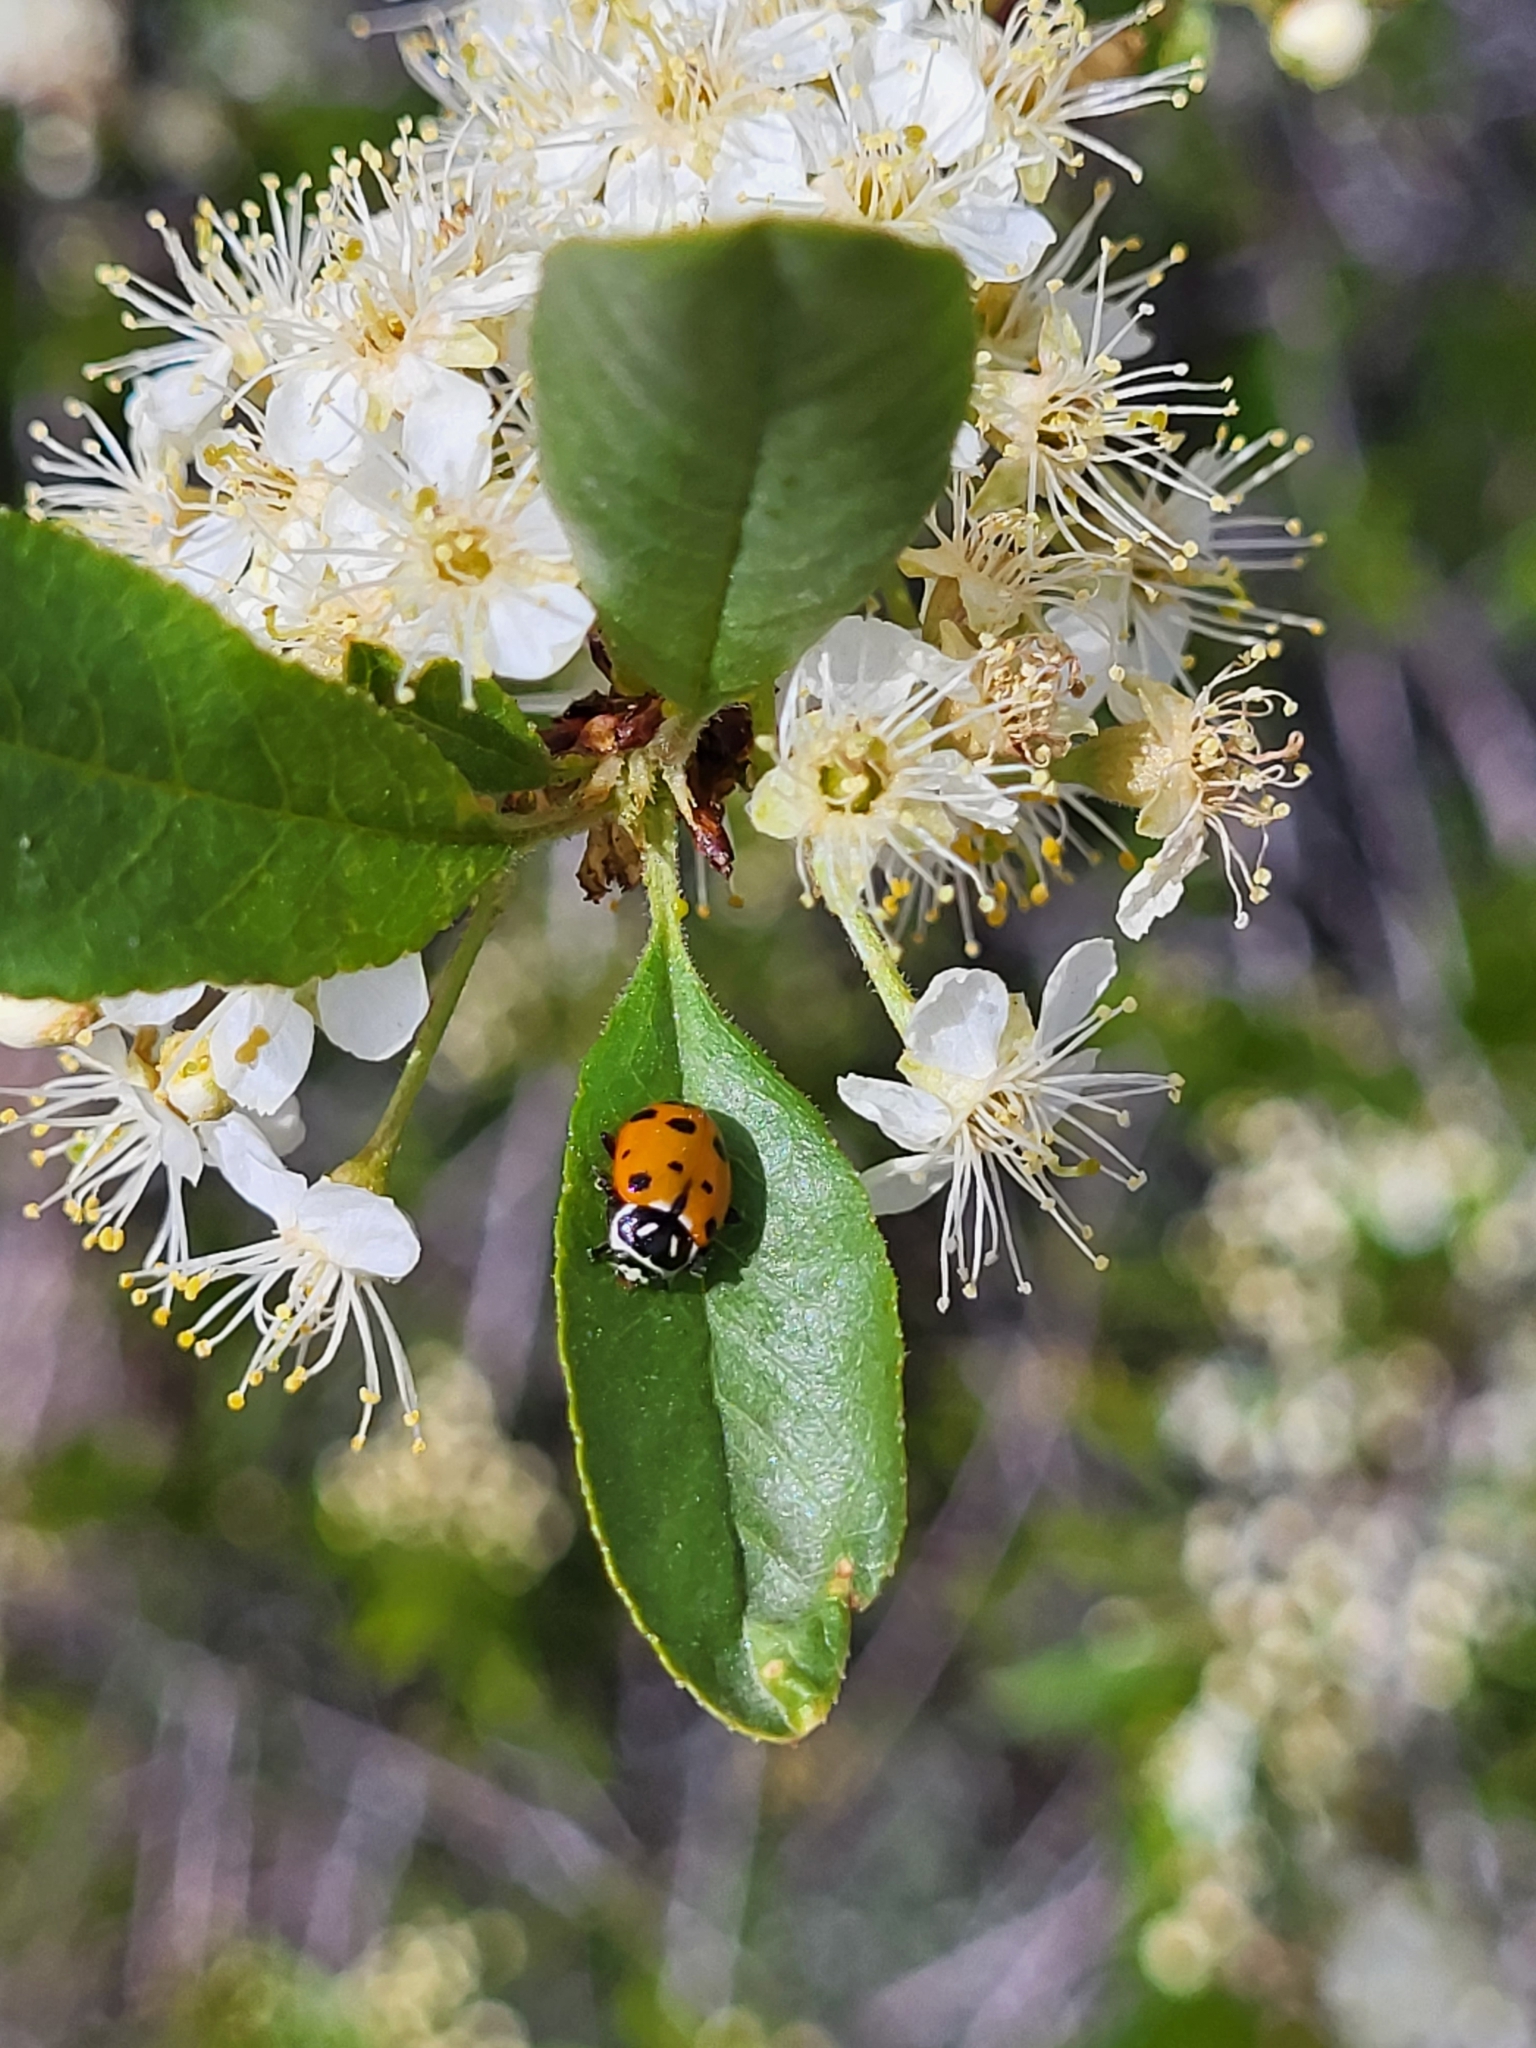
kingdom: Animalia
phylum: Arthropoda
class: Insecta
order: Coleoptera
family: Coccinellidae
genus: Hippodamia
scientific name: Hippodamia convergens
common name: Convergent lady beetle
